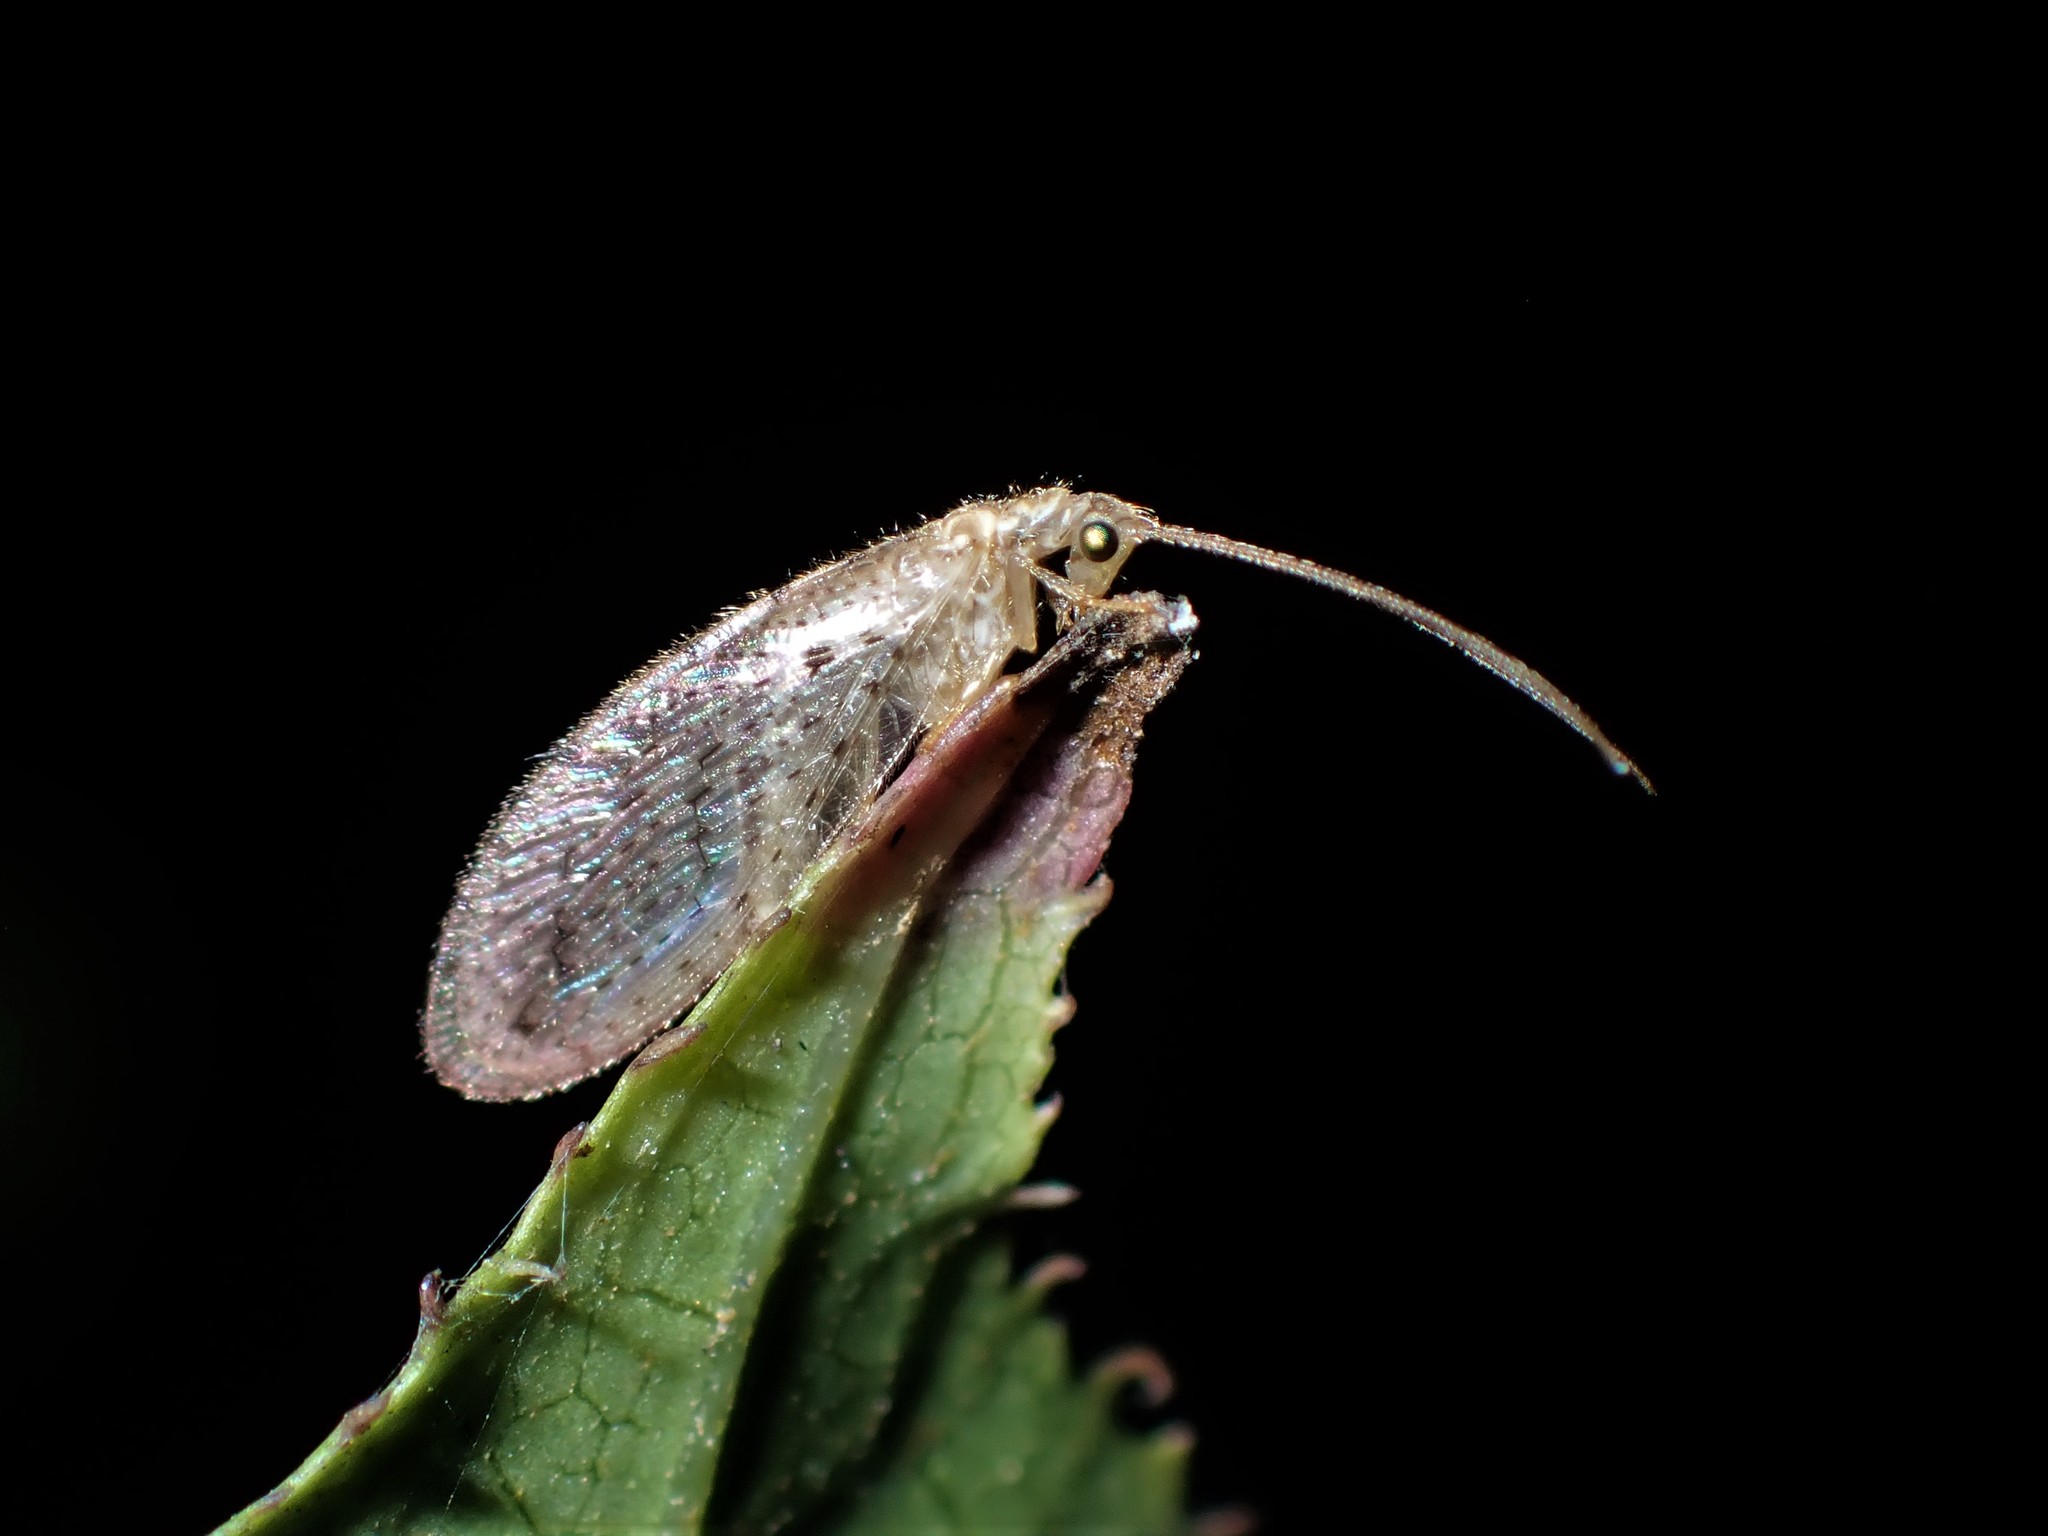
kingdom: Animalia
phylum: Arthropoda
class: Insecta
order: Neuroptera
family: Hemerobiidae
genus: Micromus
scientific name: Micromus tasmaniae
